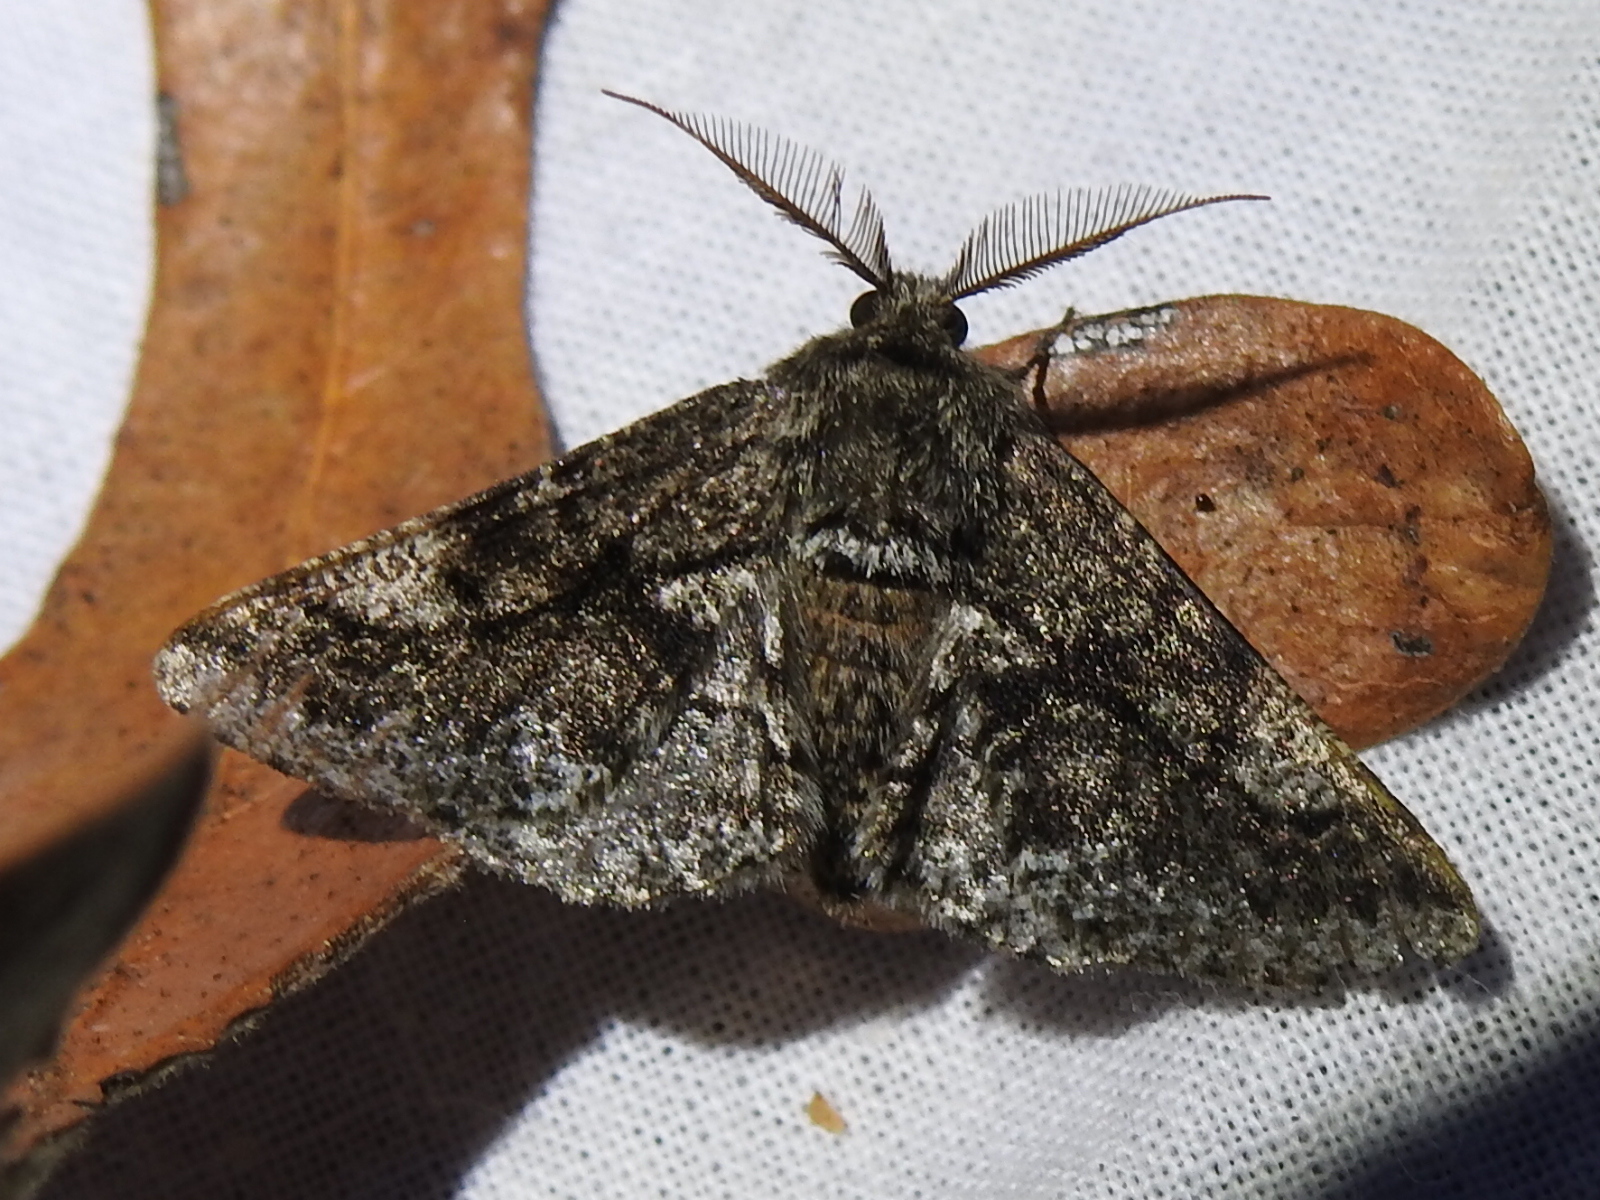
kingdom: Animalia
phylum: Arthropoda
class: Insecta
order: Lepidoptera
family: Geometridae
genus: Lycia
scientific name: Lycia ypsilon
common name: Wooly gray
